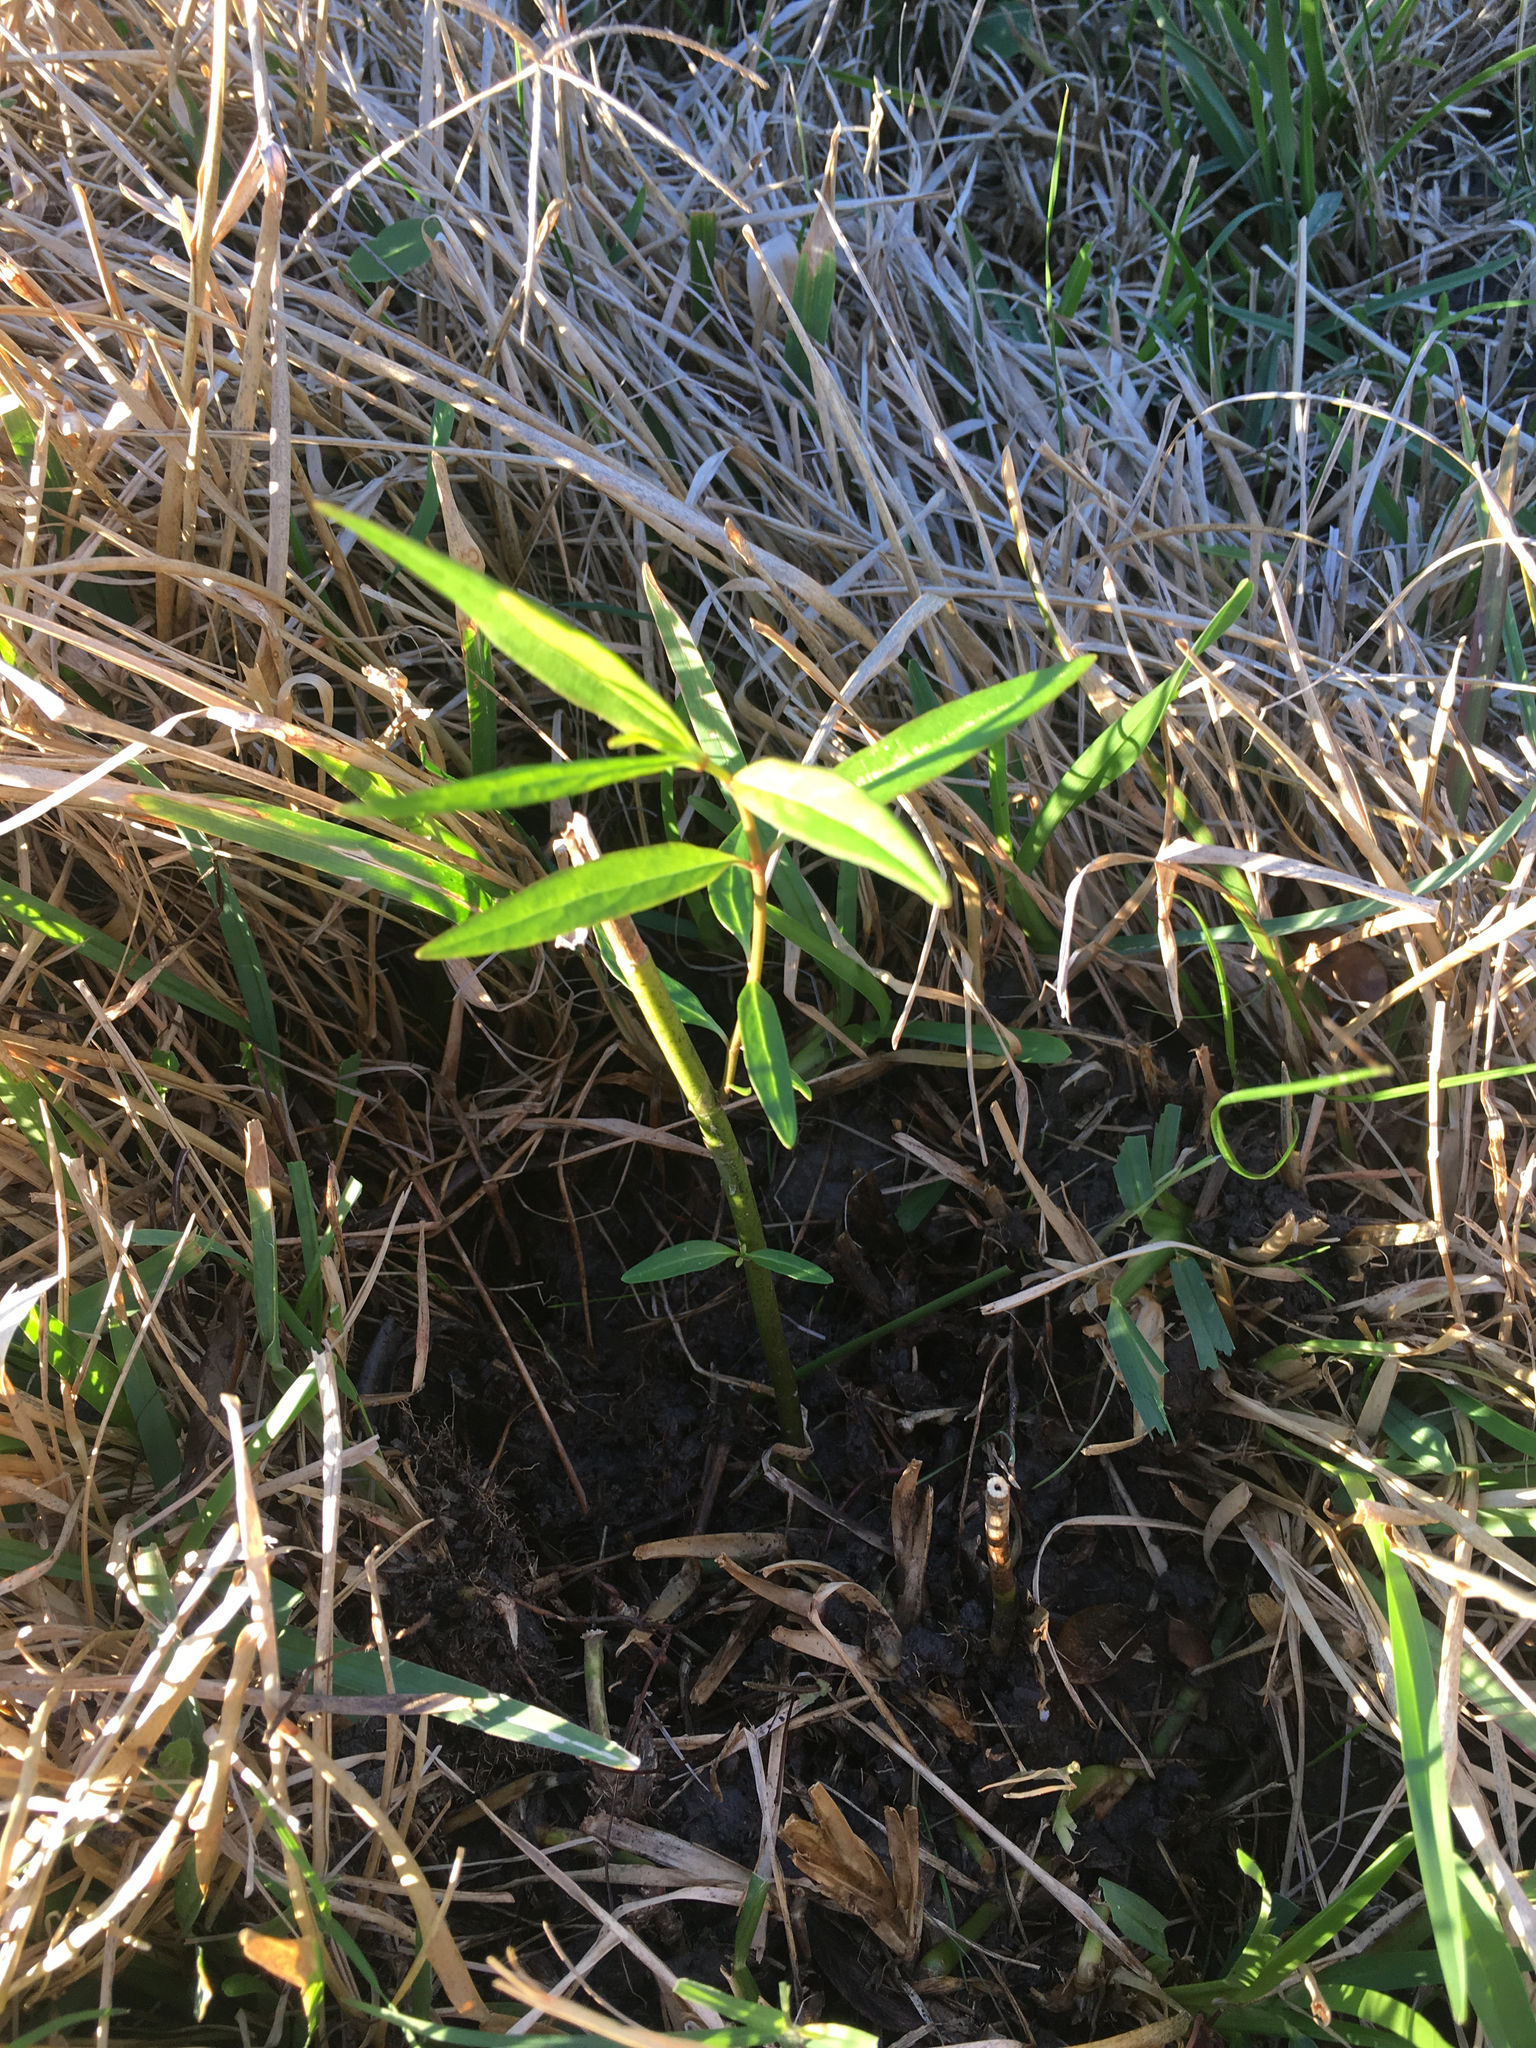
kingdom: Plantae
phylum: Tracheophyta
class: Magnoliopsida
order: Gentianales
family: Apocynaceae
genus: Asclepias
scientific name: Asclepias perennis
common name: Smooth-seed milkweed
